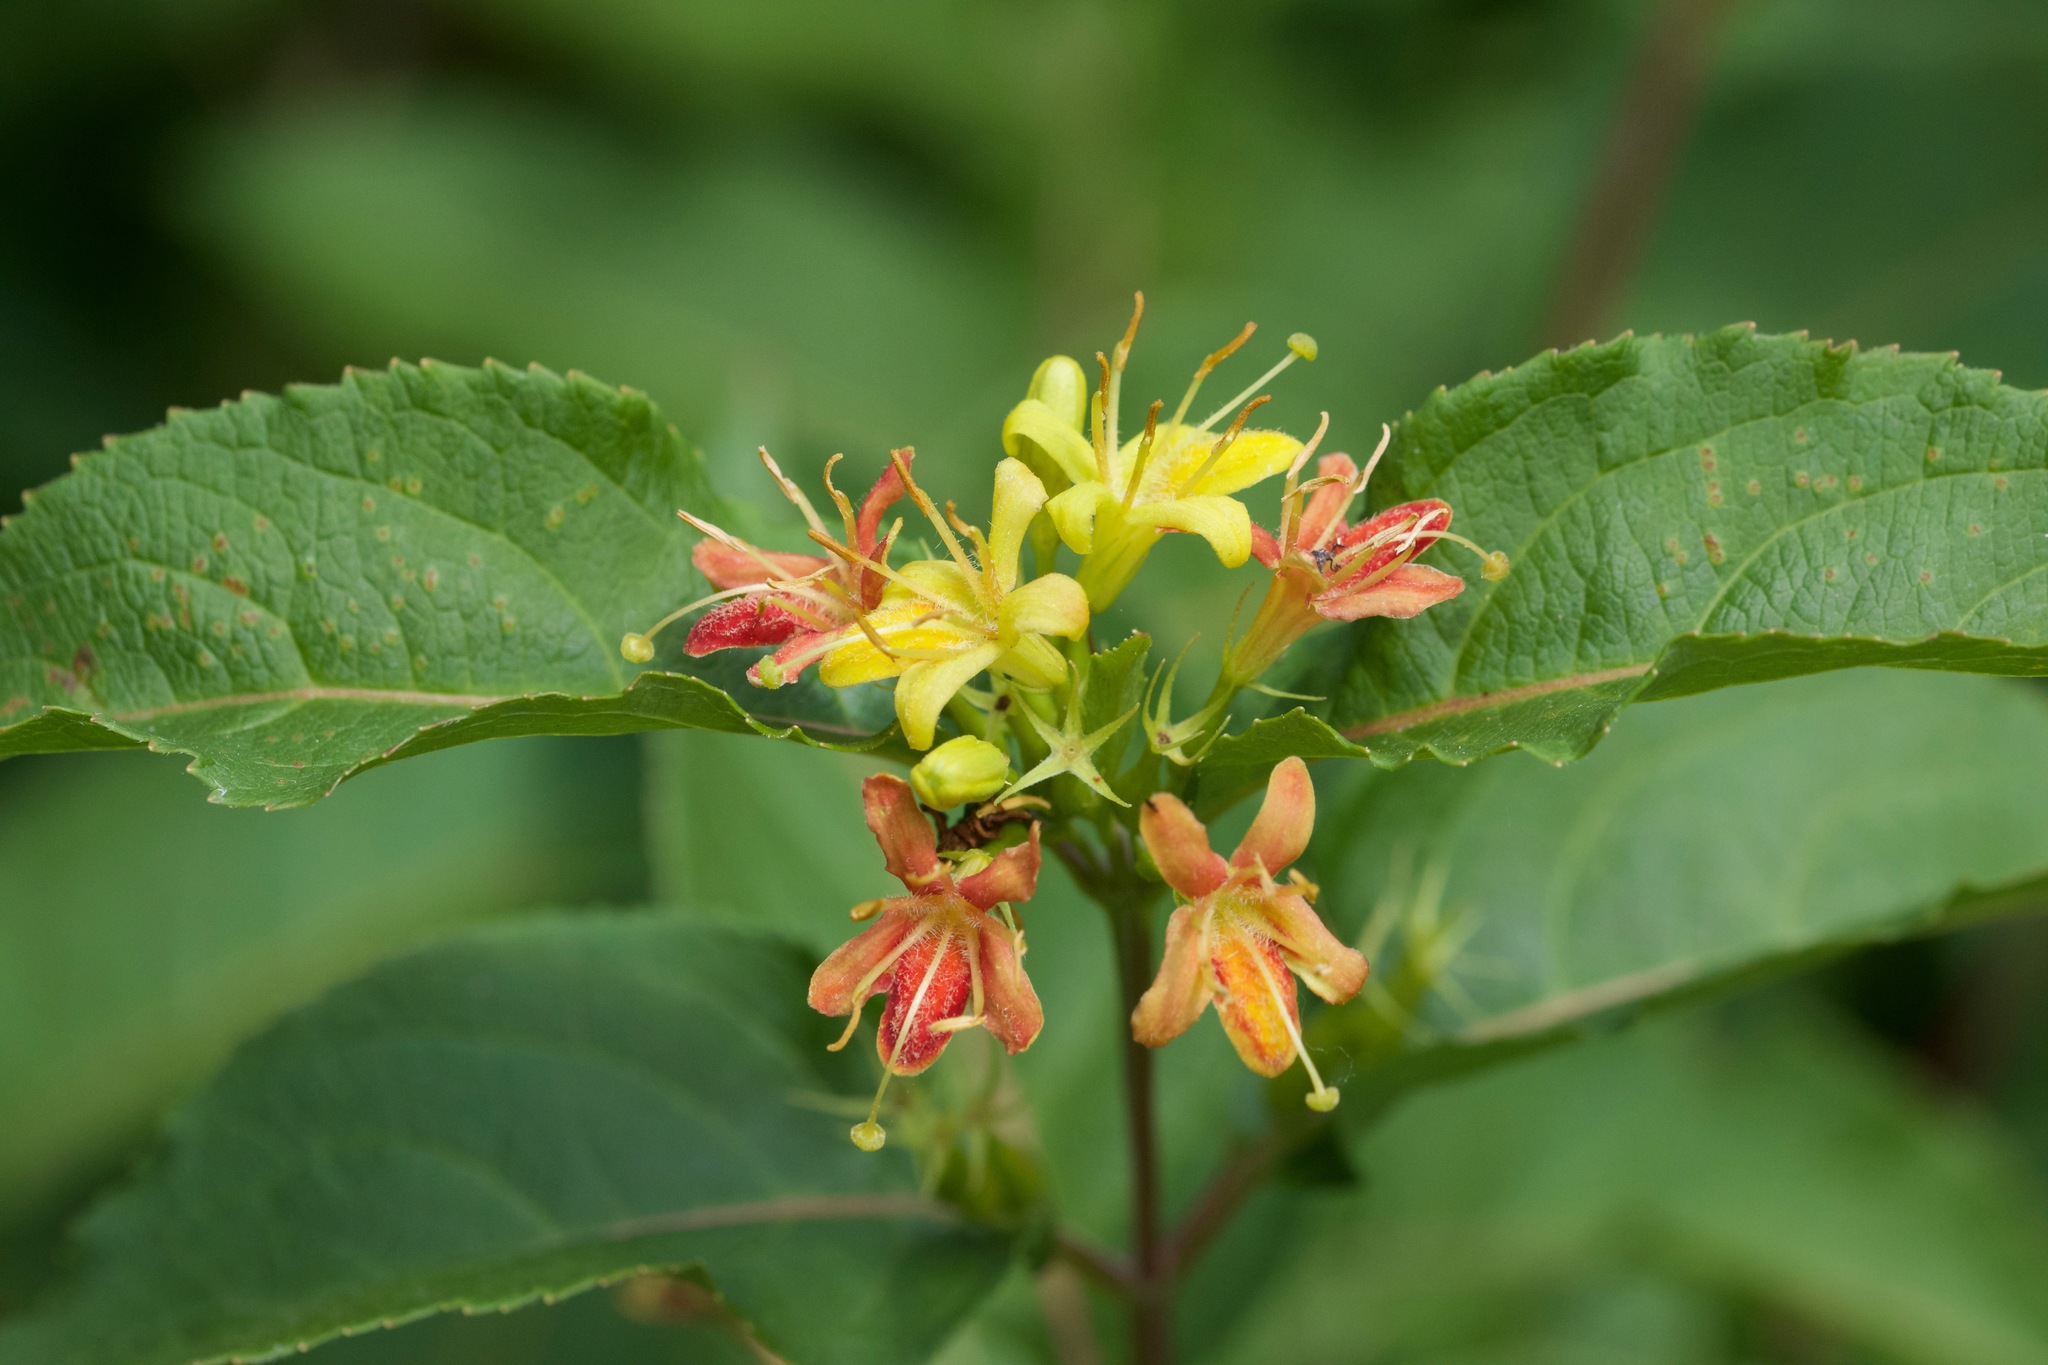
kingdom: Plantae
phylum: Tracheophyta
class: Magnoliopsida
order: Dipsacales
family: Caprifoliaceae
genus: Diervilla
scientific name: Diervilla lonicera
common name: Bush-honeysuckle
